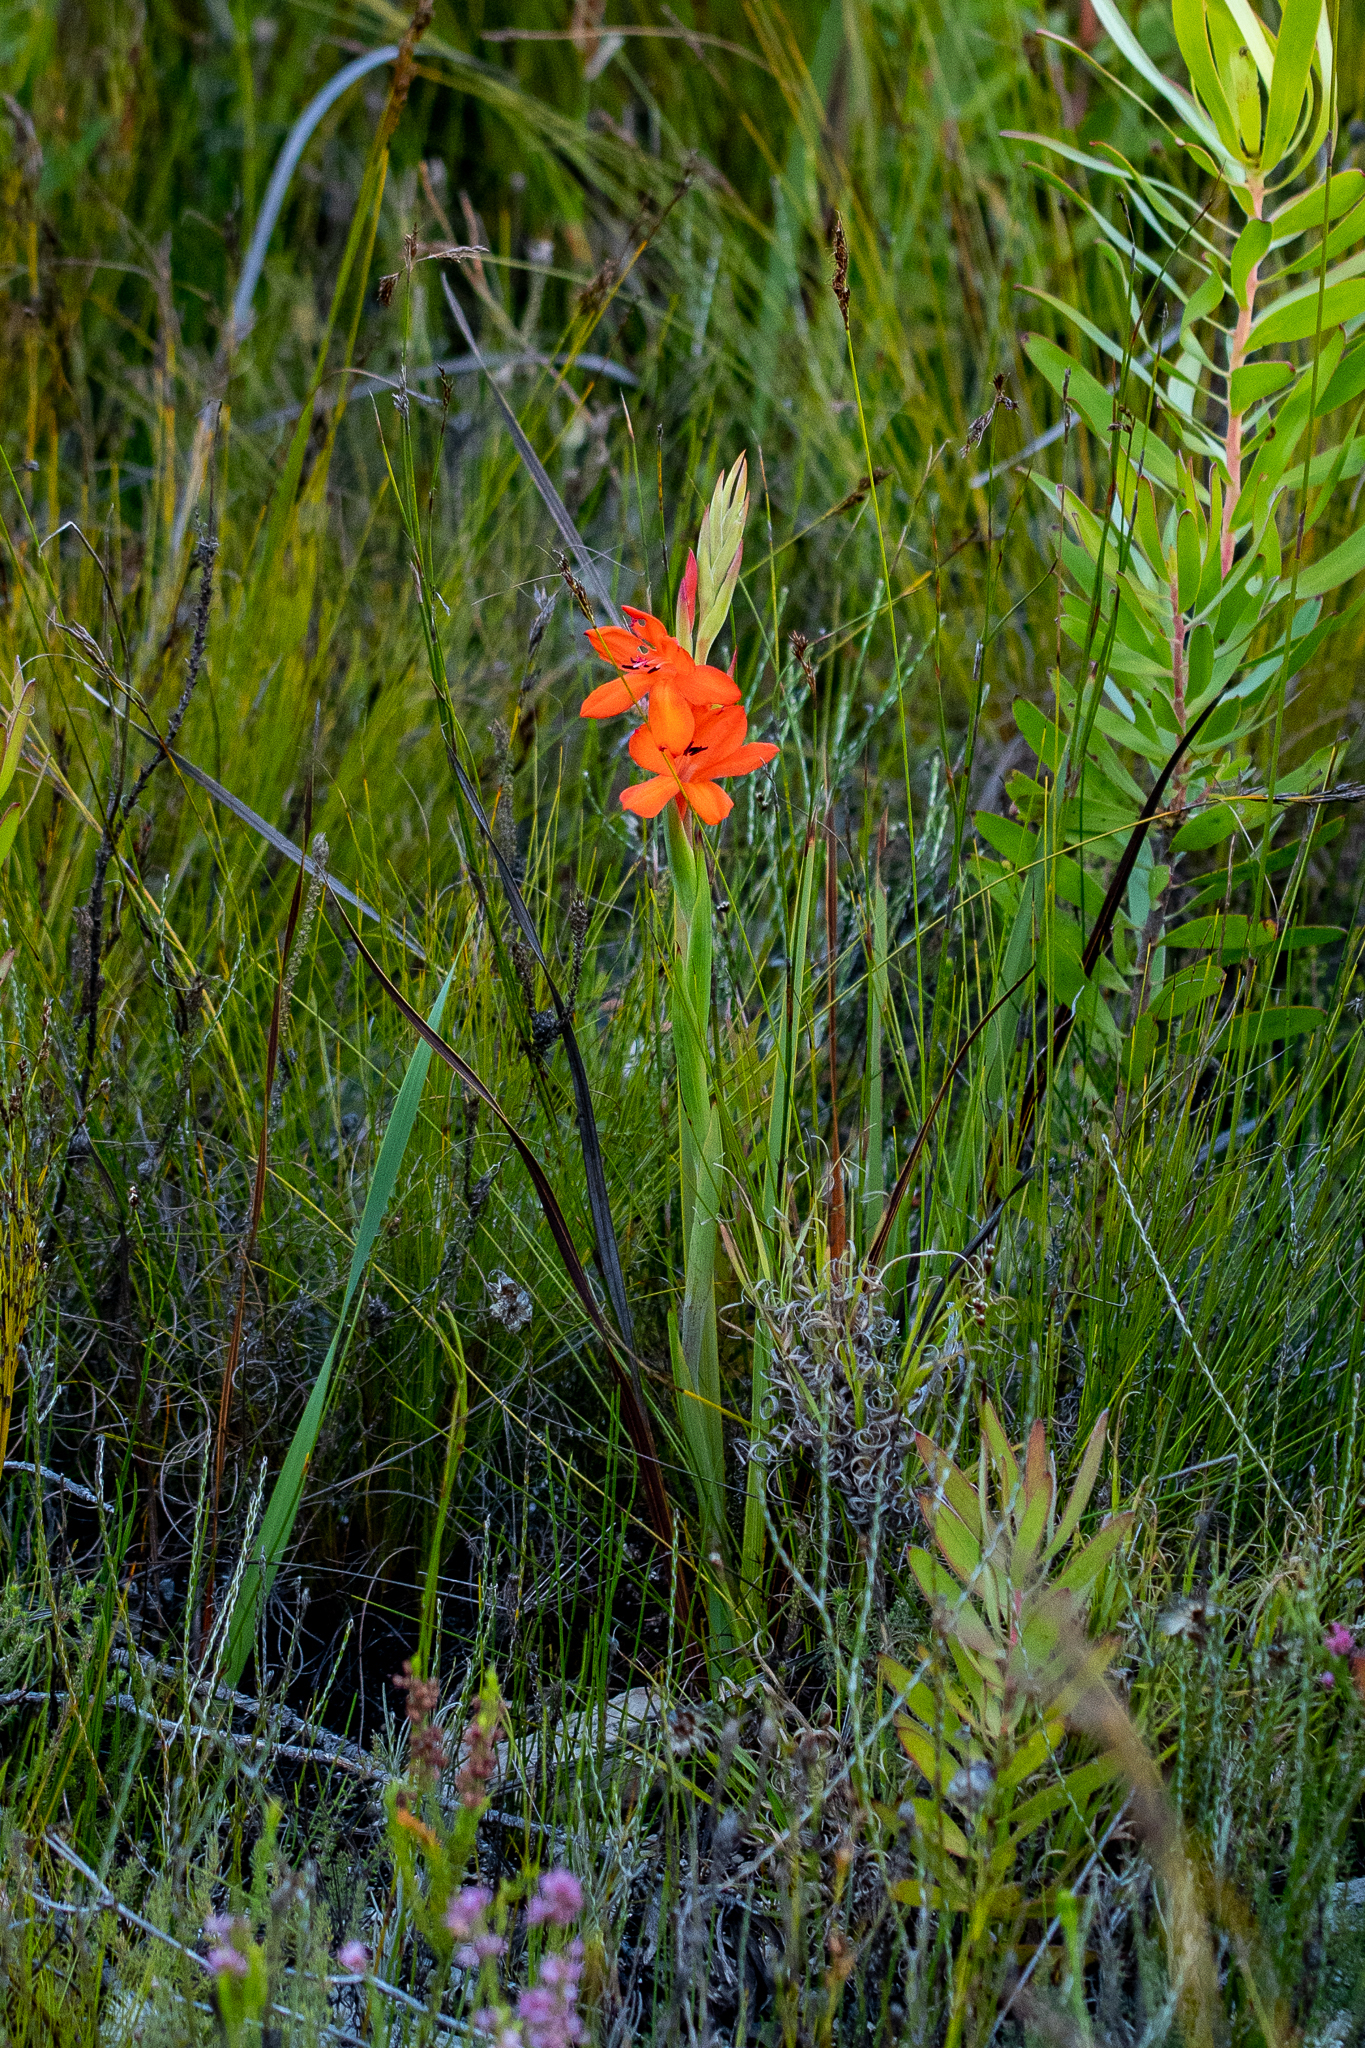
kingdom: Plantae
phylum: Tracheophyta
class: Liliopsida
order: Asparagales
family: Iridaceae
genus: Watsonia
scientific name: Watsonia schlechteri
